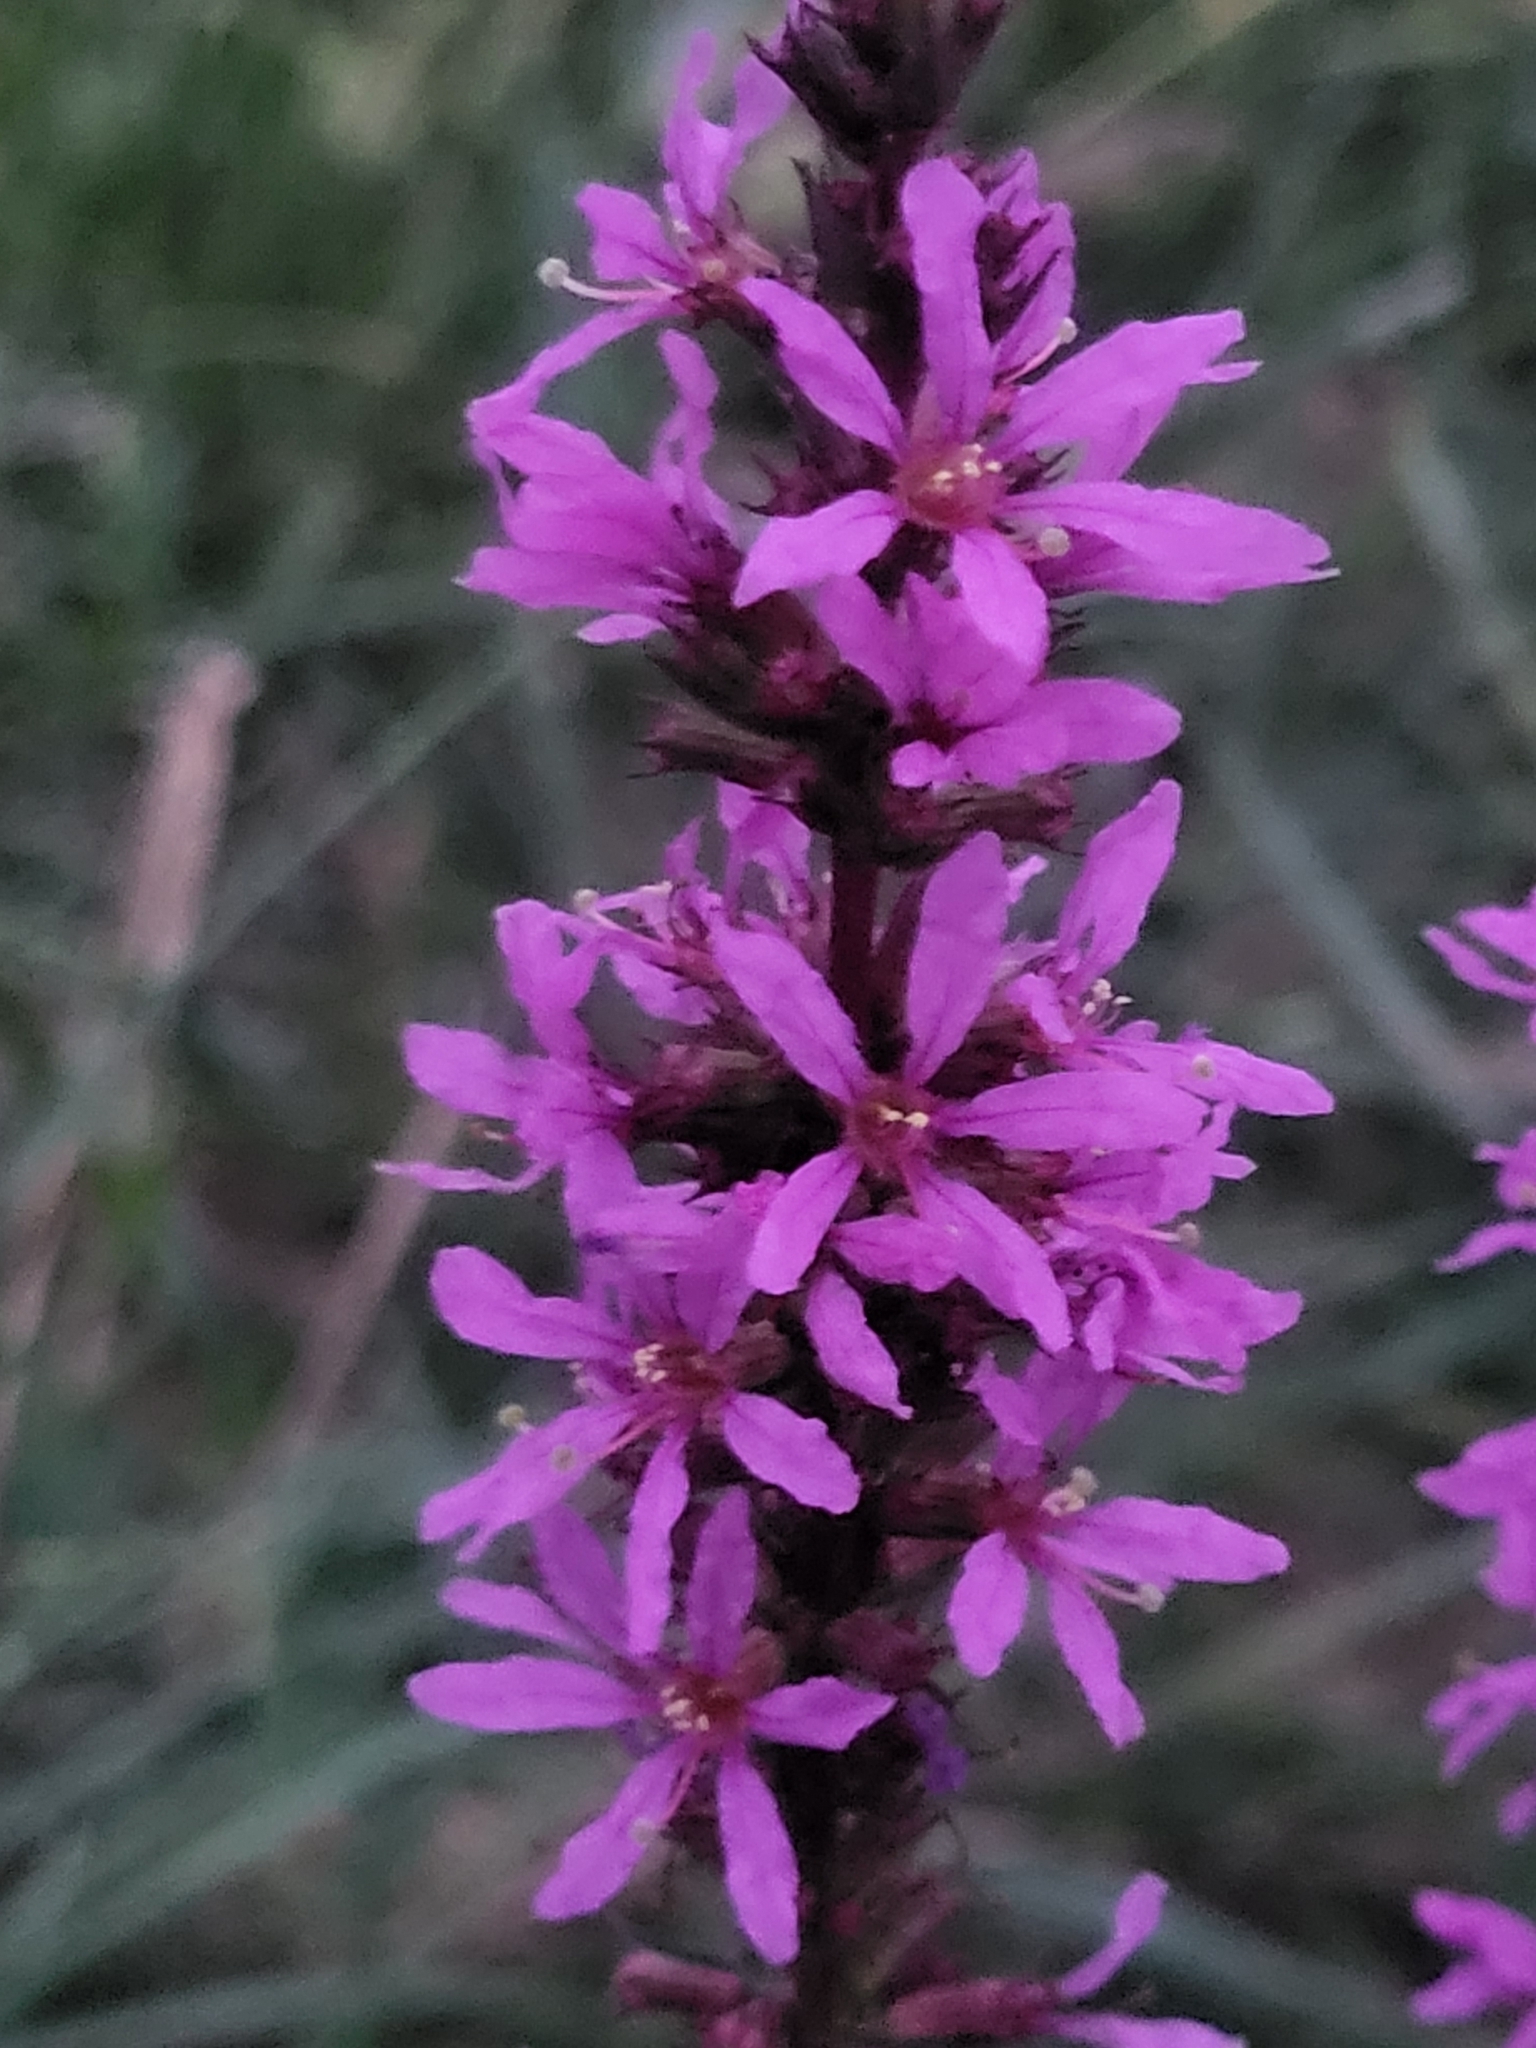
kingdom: Plantae
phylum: Tracheophyta
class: Magnoliopsida
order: Myrtales
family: Lythraceae
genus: Lythrum
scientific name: Lythrum salicaria
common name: Purple loosestrife
